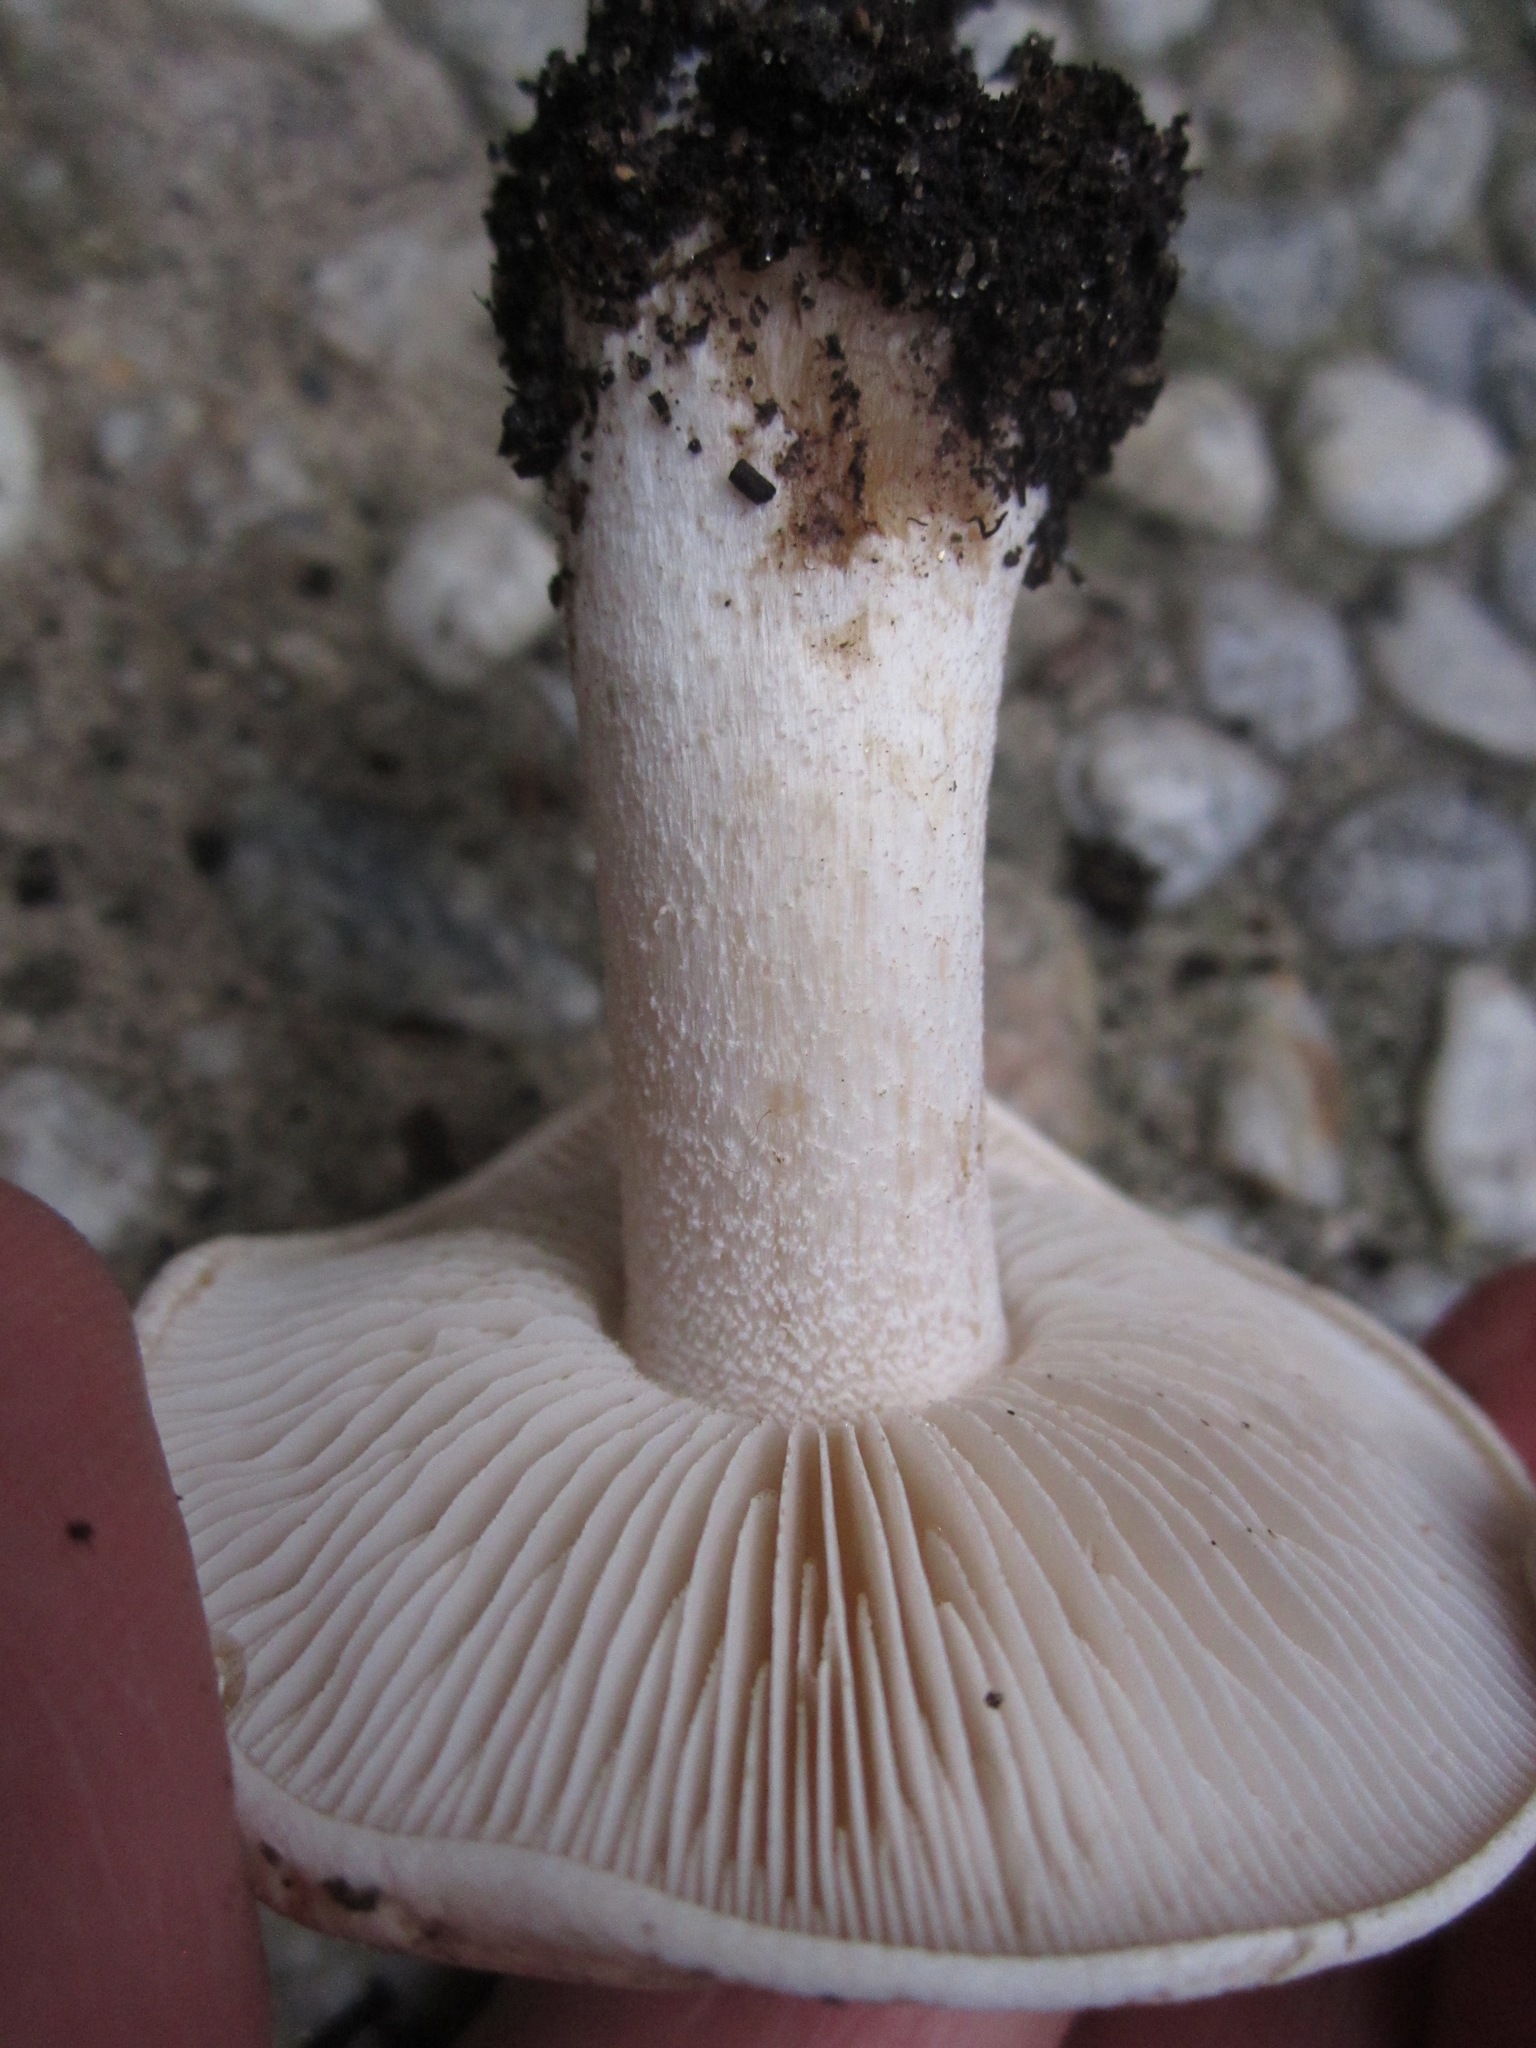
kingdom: Fungi
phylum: Basidiomycota
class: Agaricomycetes
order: Agaricales
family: Hymenogastraceae
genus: Hebeloma
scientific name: Hebeloma crustuliniforme
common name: Poison pie
